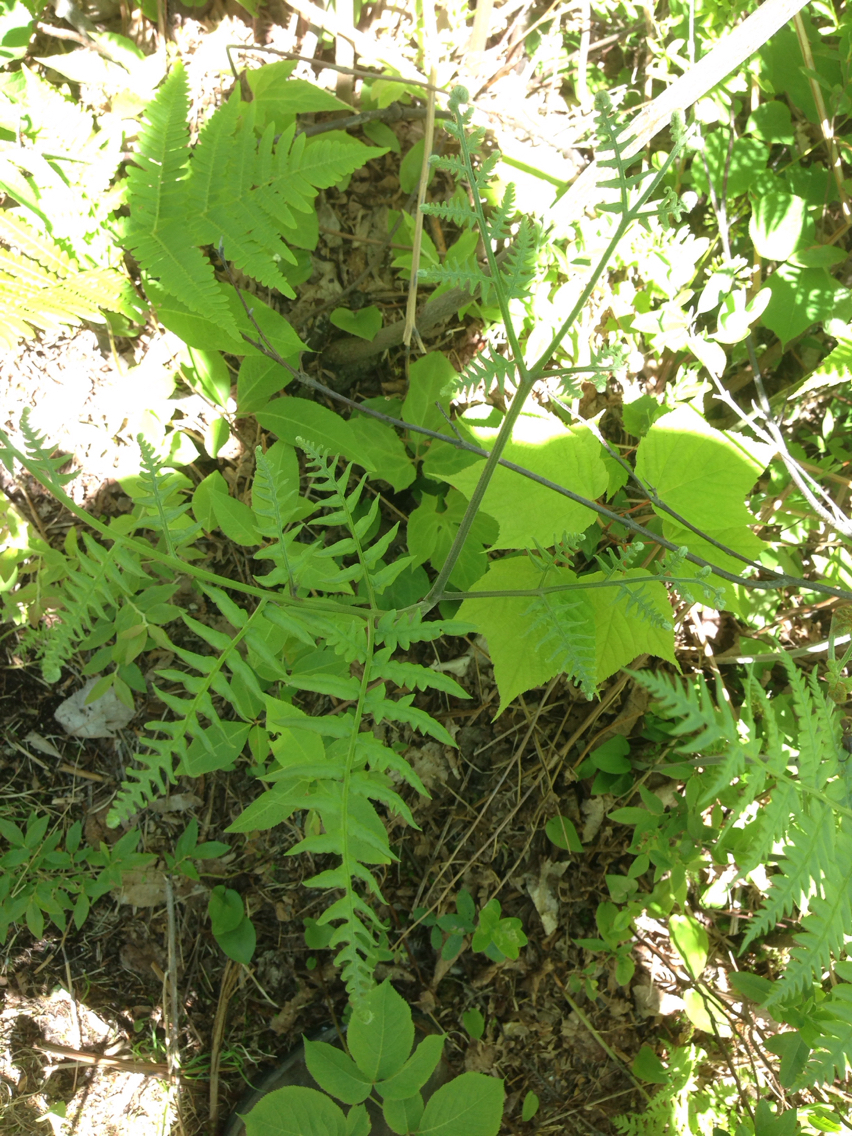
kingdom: Plantae
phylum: Tracheophyta
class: Polypodiopsida
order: Polypodiales
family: Dennstaedtiaceae
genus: Pteridium
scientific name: Pteridium aquilinum
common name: Bracken
